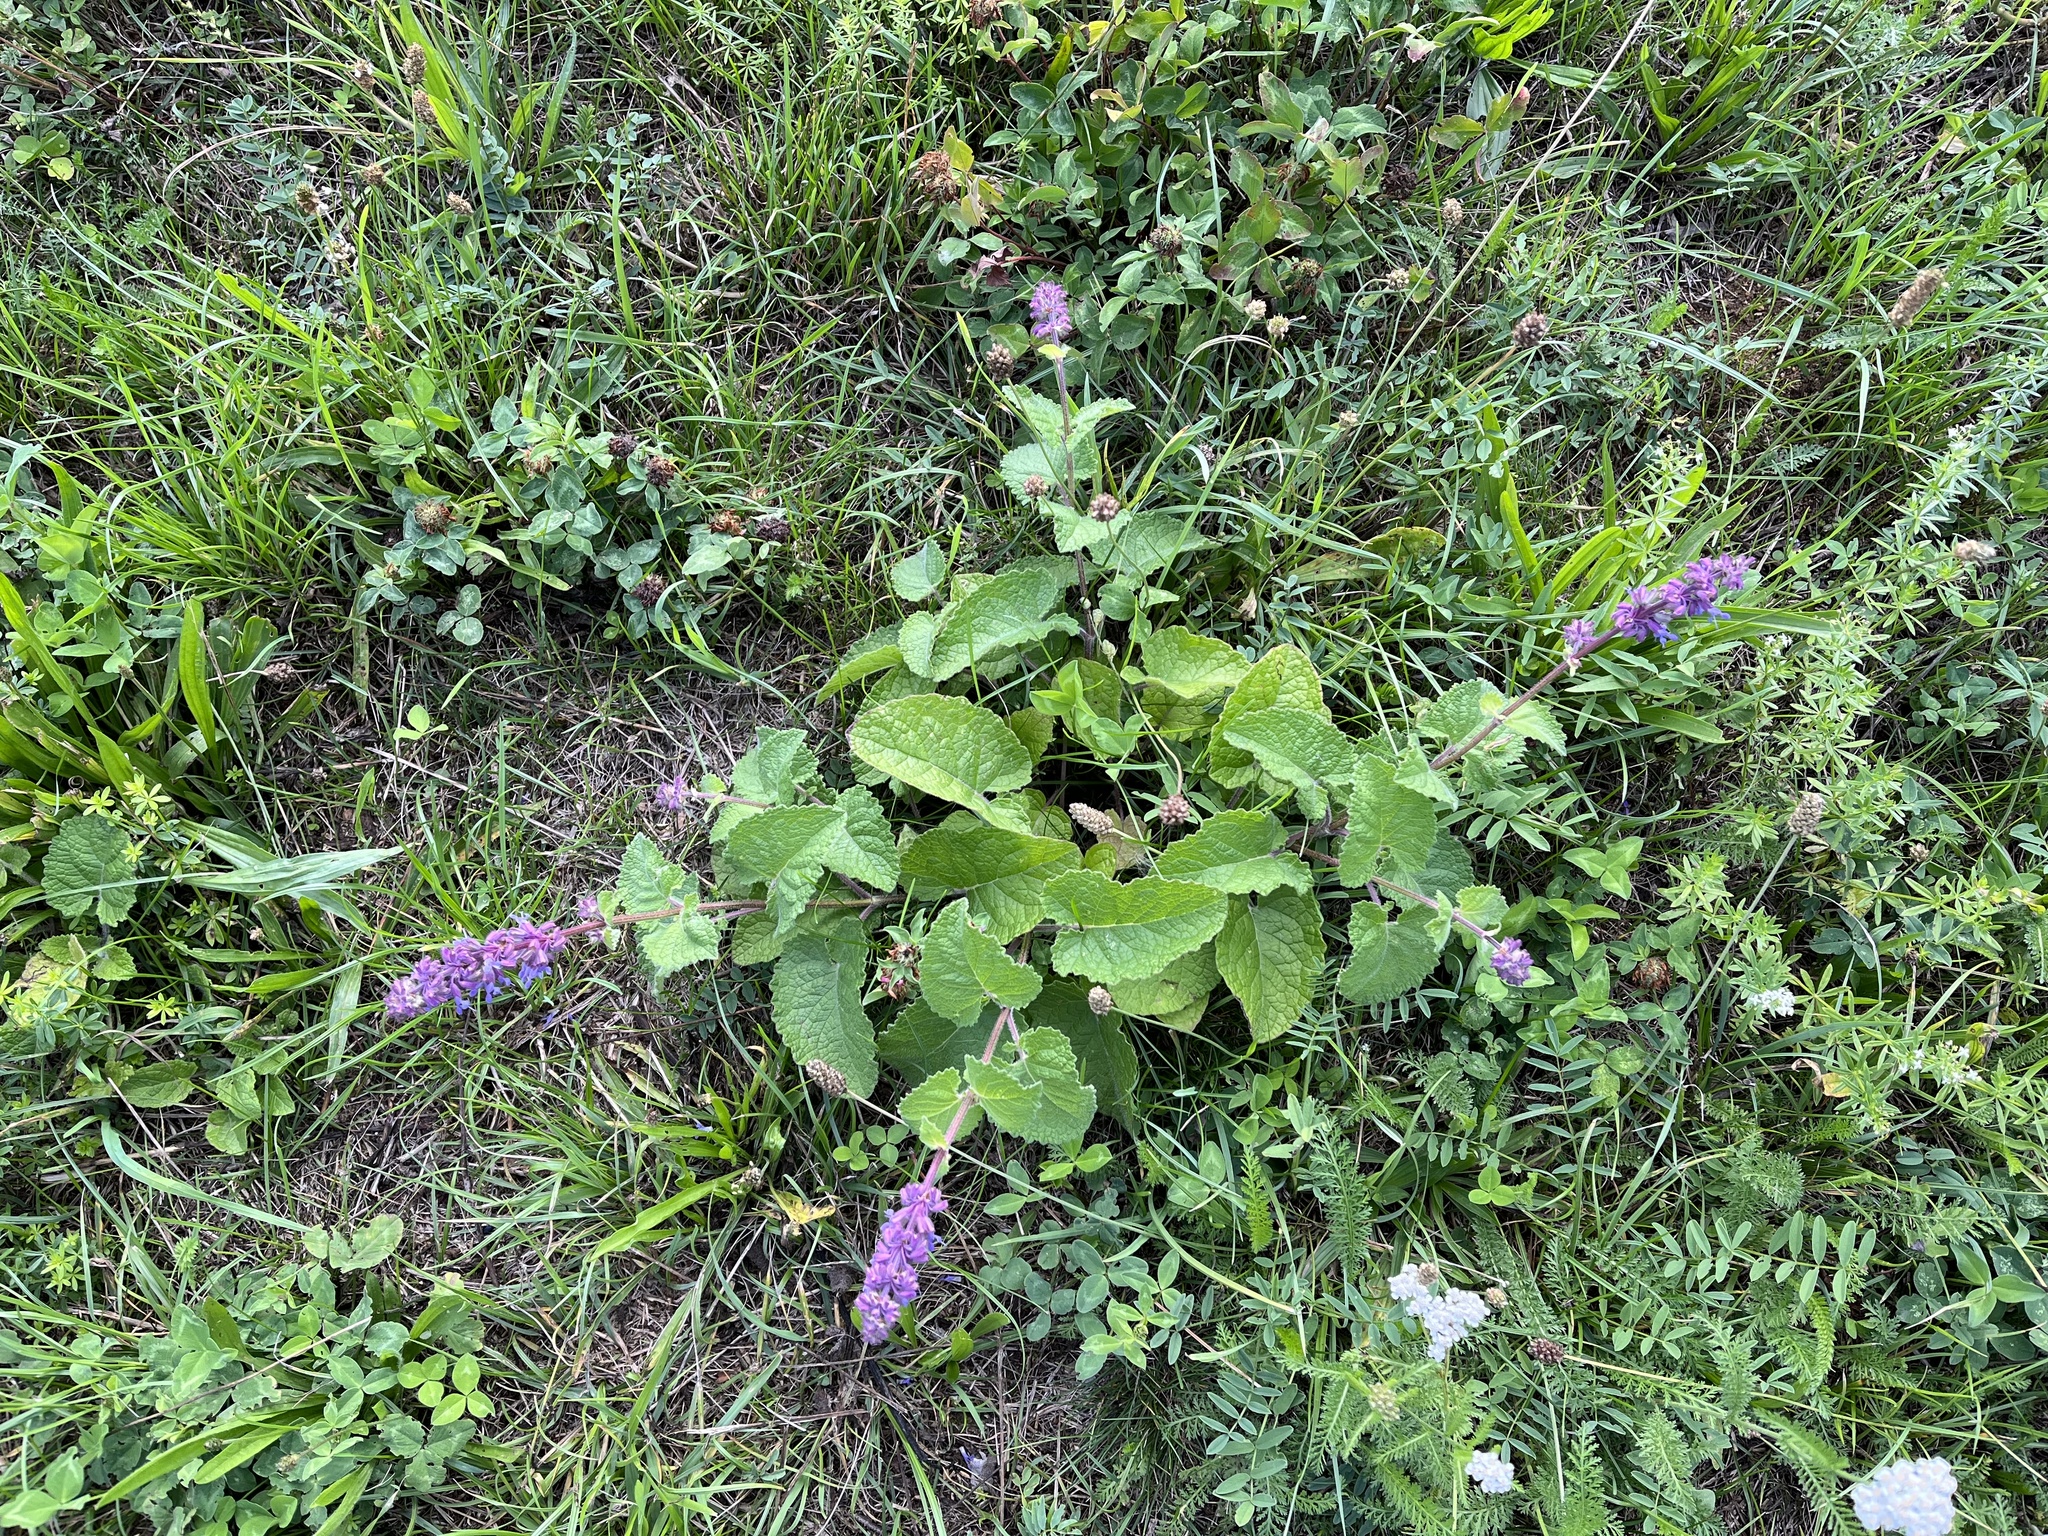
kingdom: Plantae
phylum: Tracheophyta
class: Magnoliopsida
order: Lamiales
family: Lamiaceae
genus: Salvia
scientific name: Salvia verticillata
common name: Whorled clary
